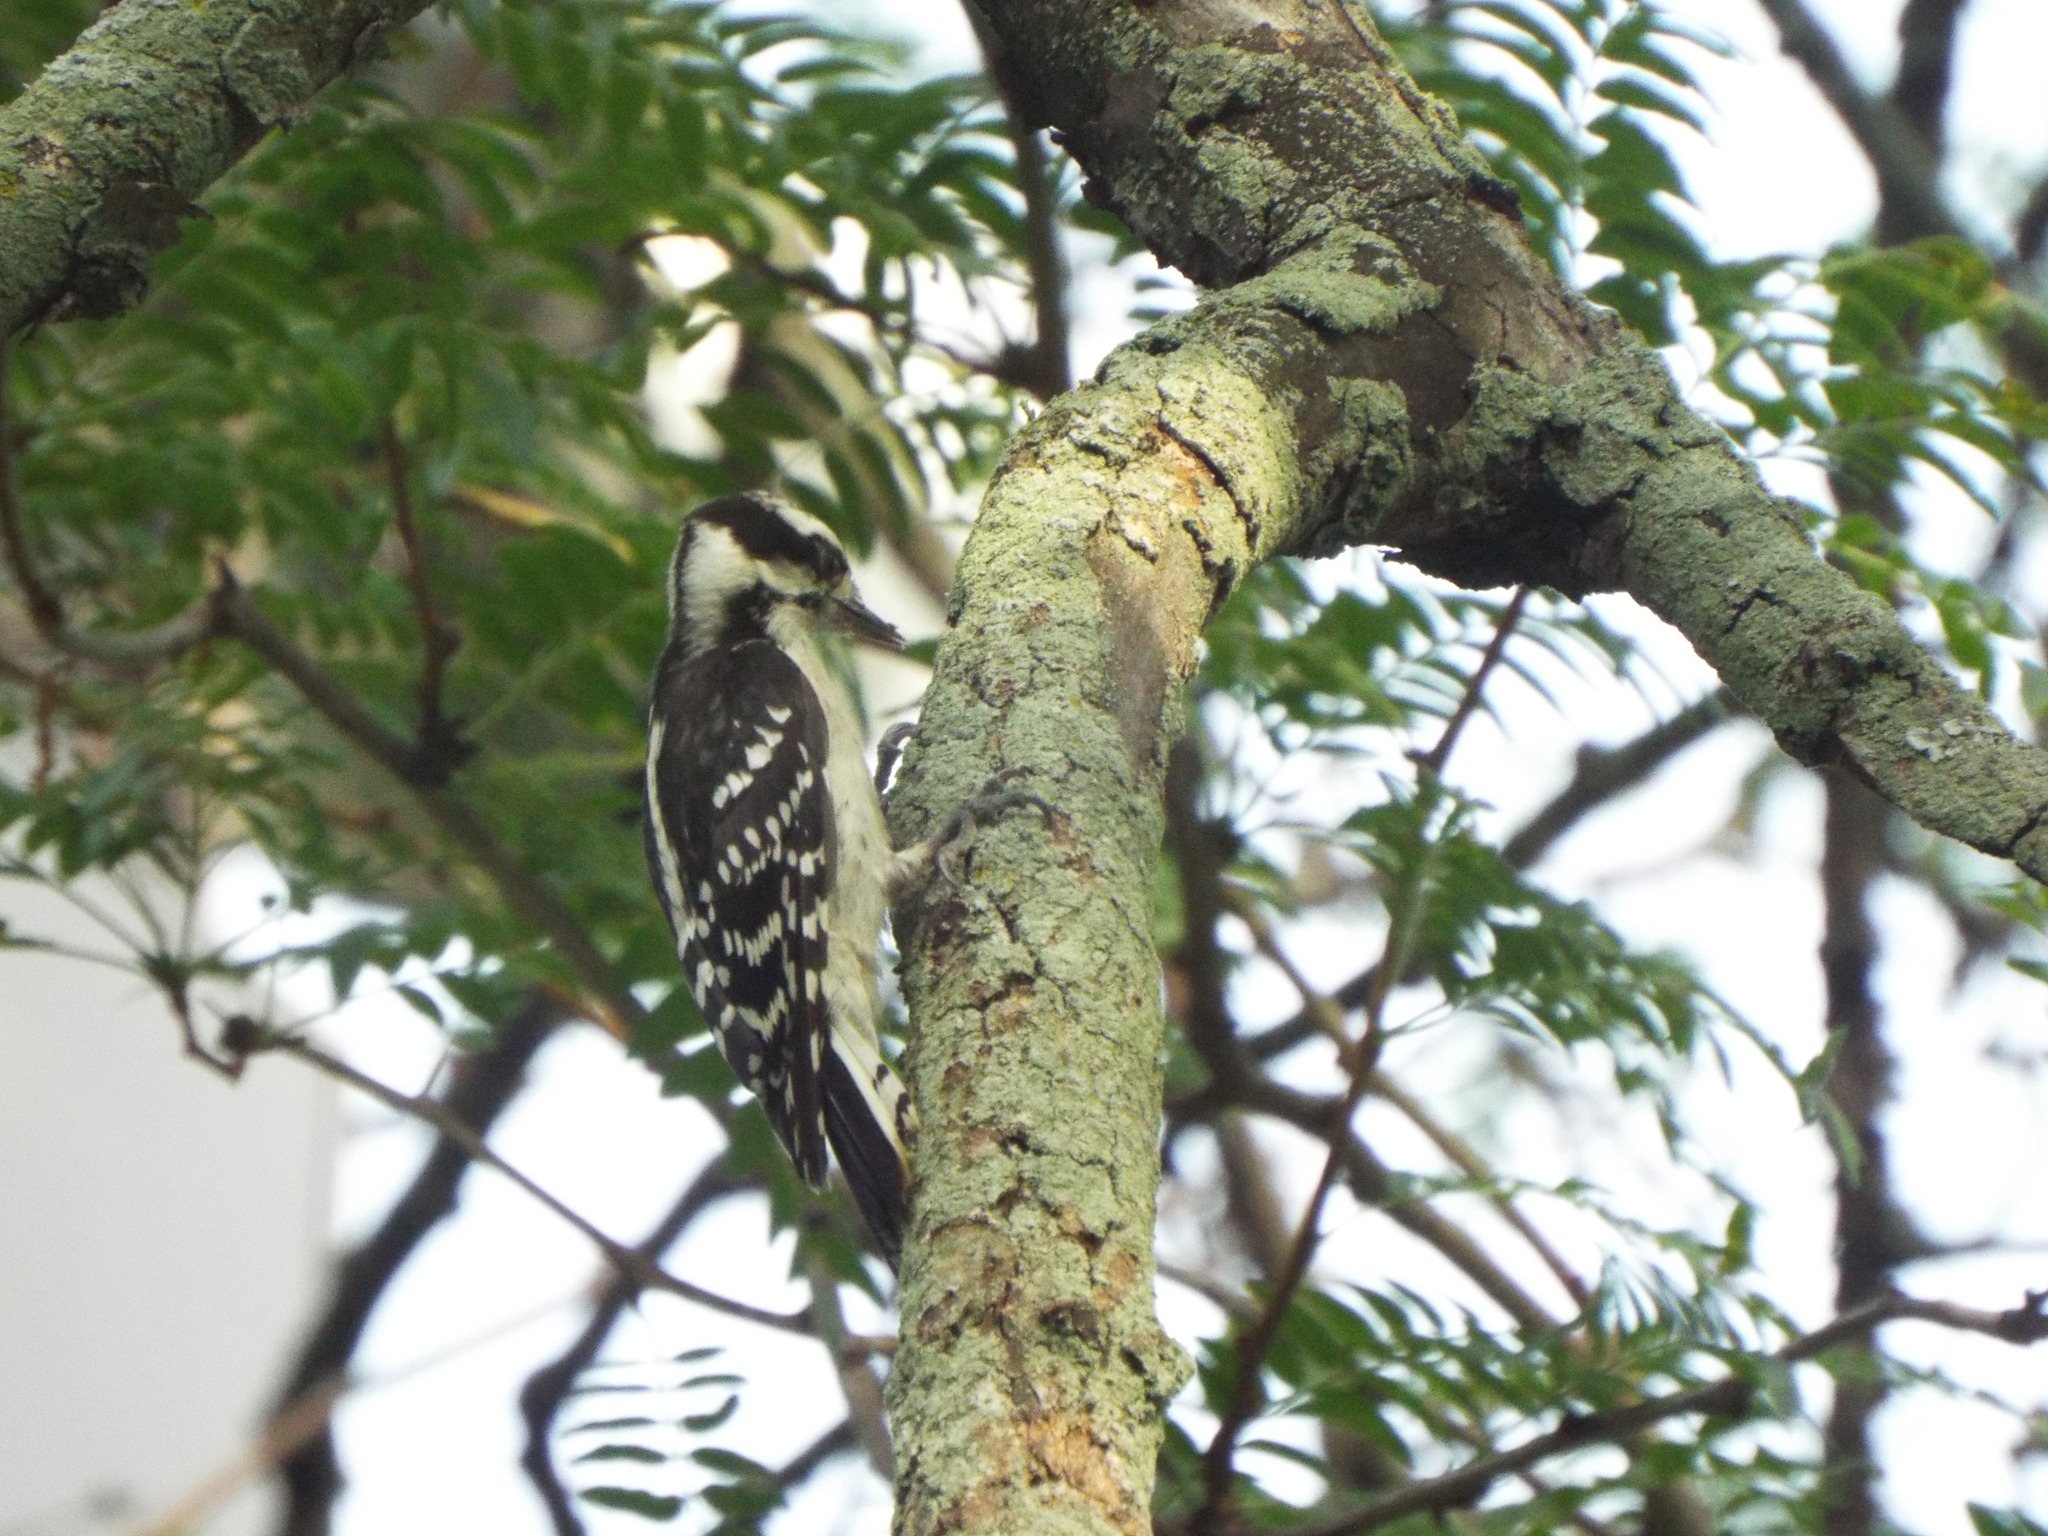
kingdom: Animalia
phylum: Chordata
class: Aves
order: Piciformes
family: Picidae
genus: Dryobates
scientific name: Dryobates pubescens
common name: Downy woodpecker
